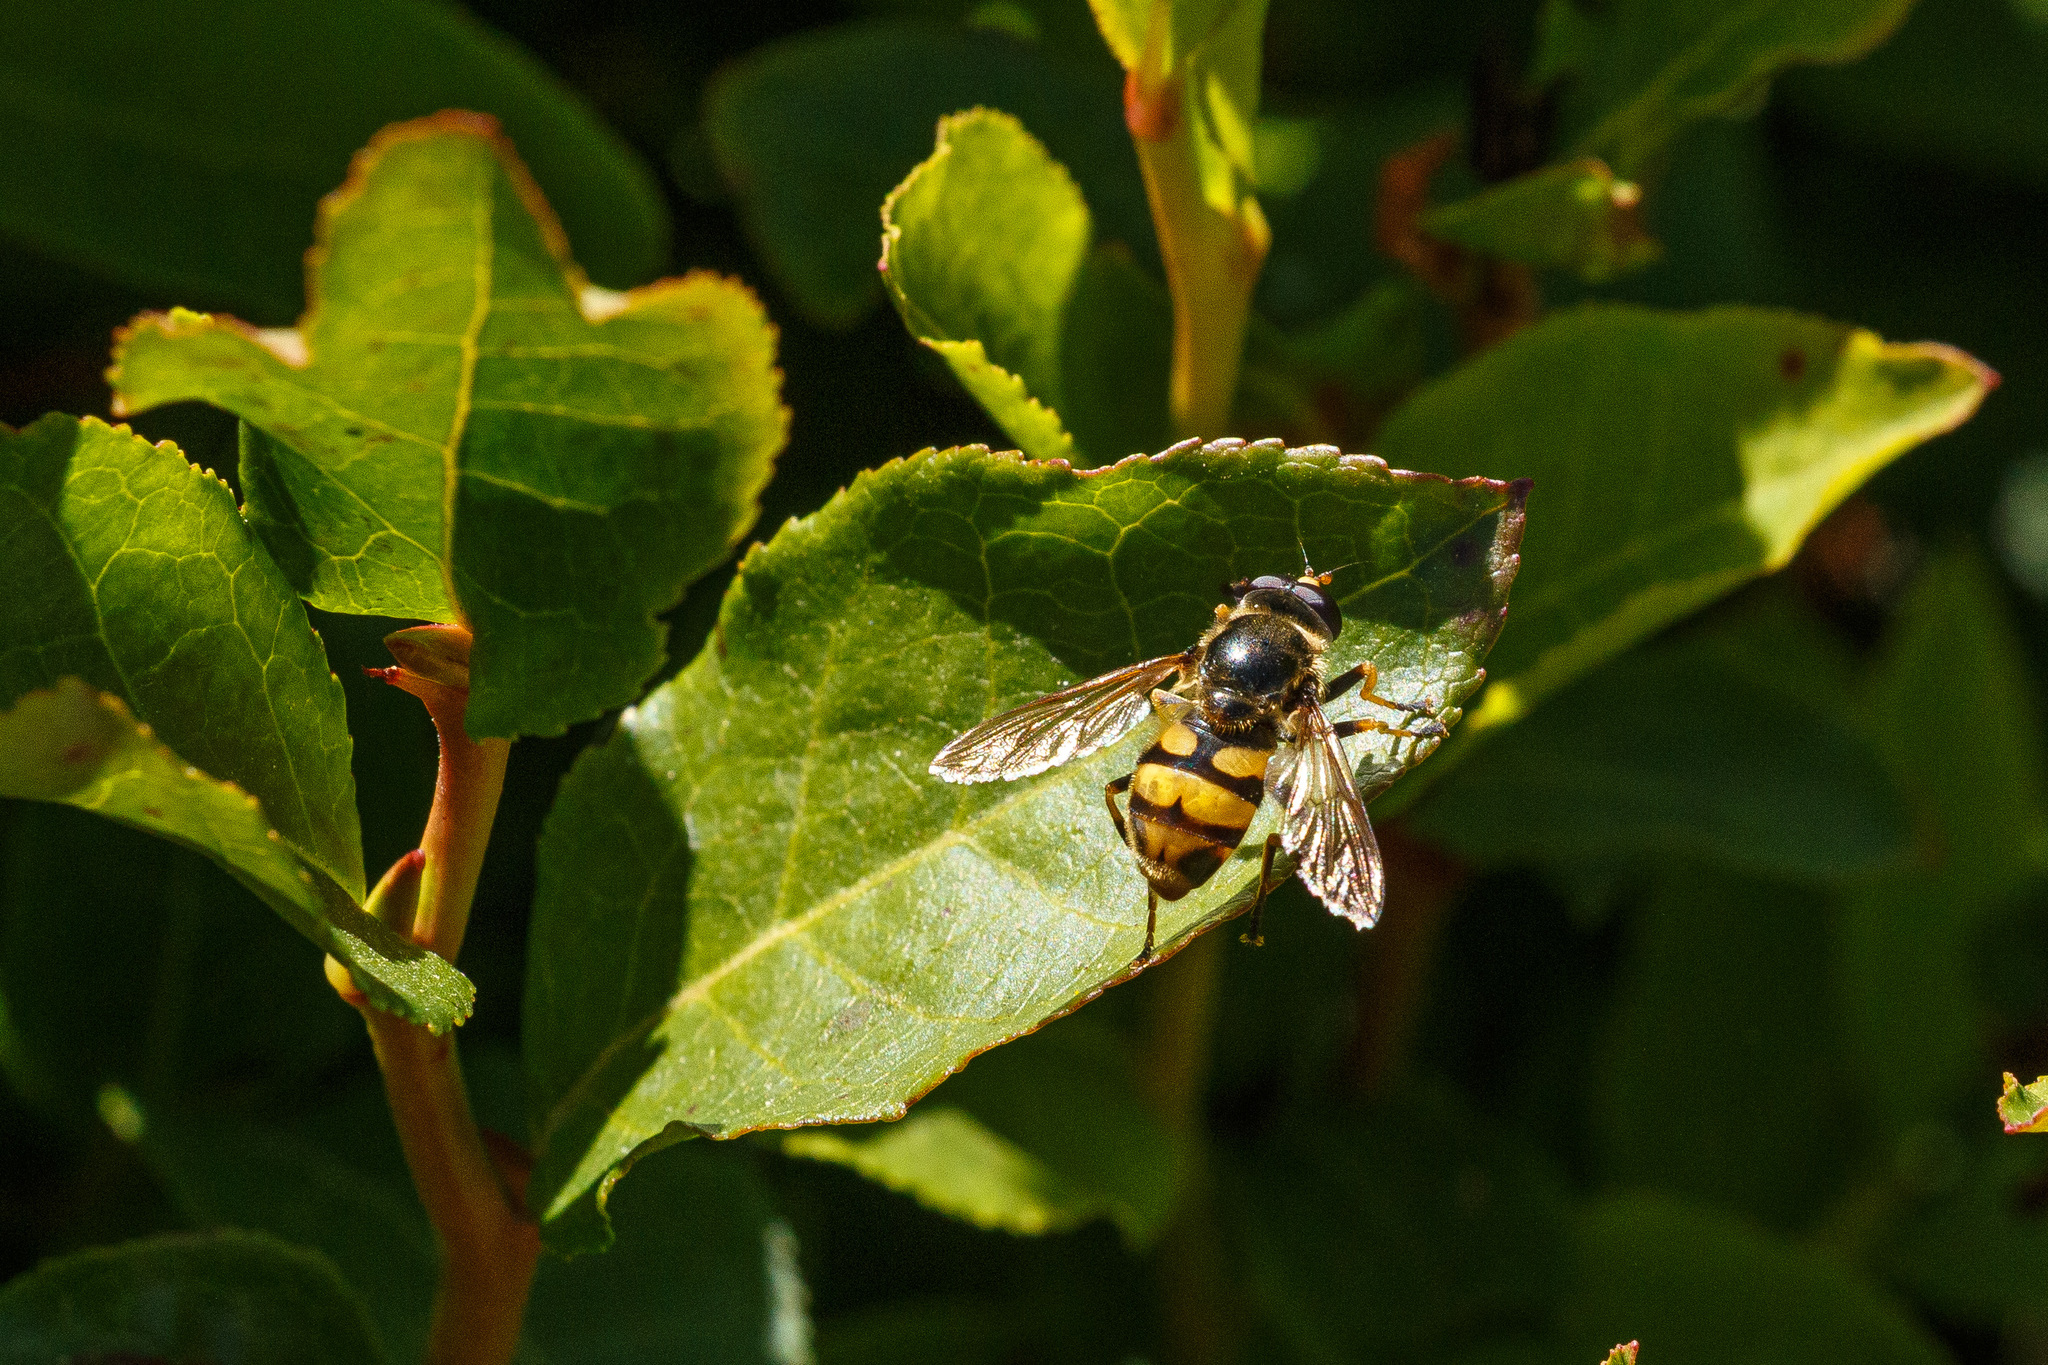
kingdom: Animalia
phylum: Arthropoda
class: Insecta
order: Diptera
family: Syrphidae
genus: Blera
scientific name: Blera scitula
